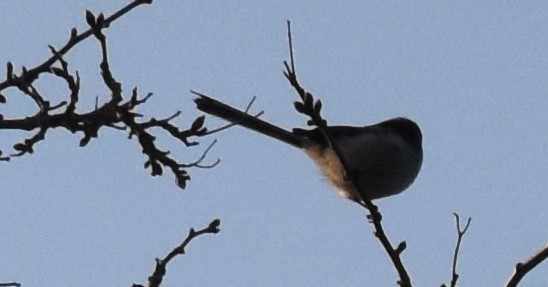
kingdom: Animalia
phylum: Chordata
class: Aves
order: Passeriformes
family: Aegithalidae
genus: Aegithalos
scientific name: Aegithalos caudatus
